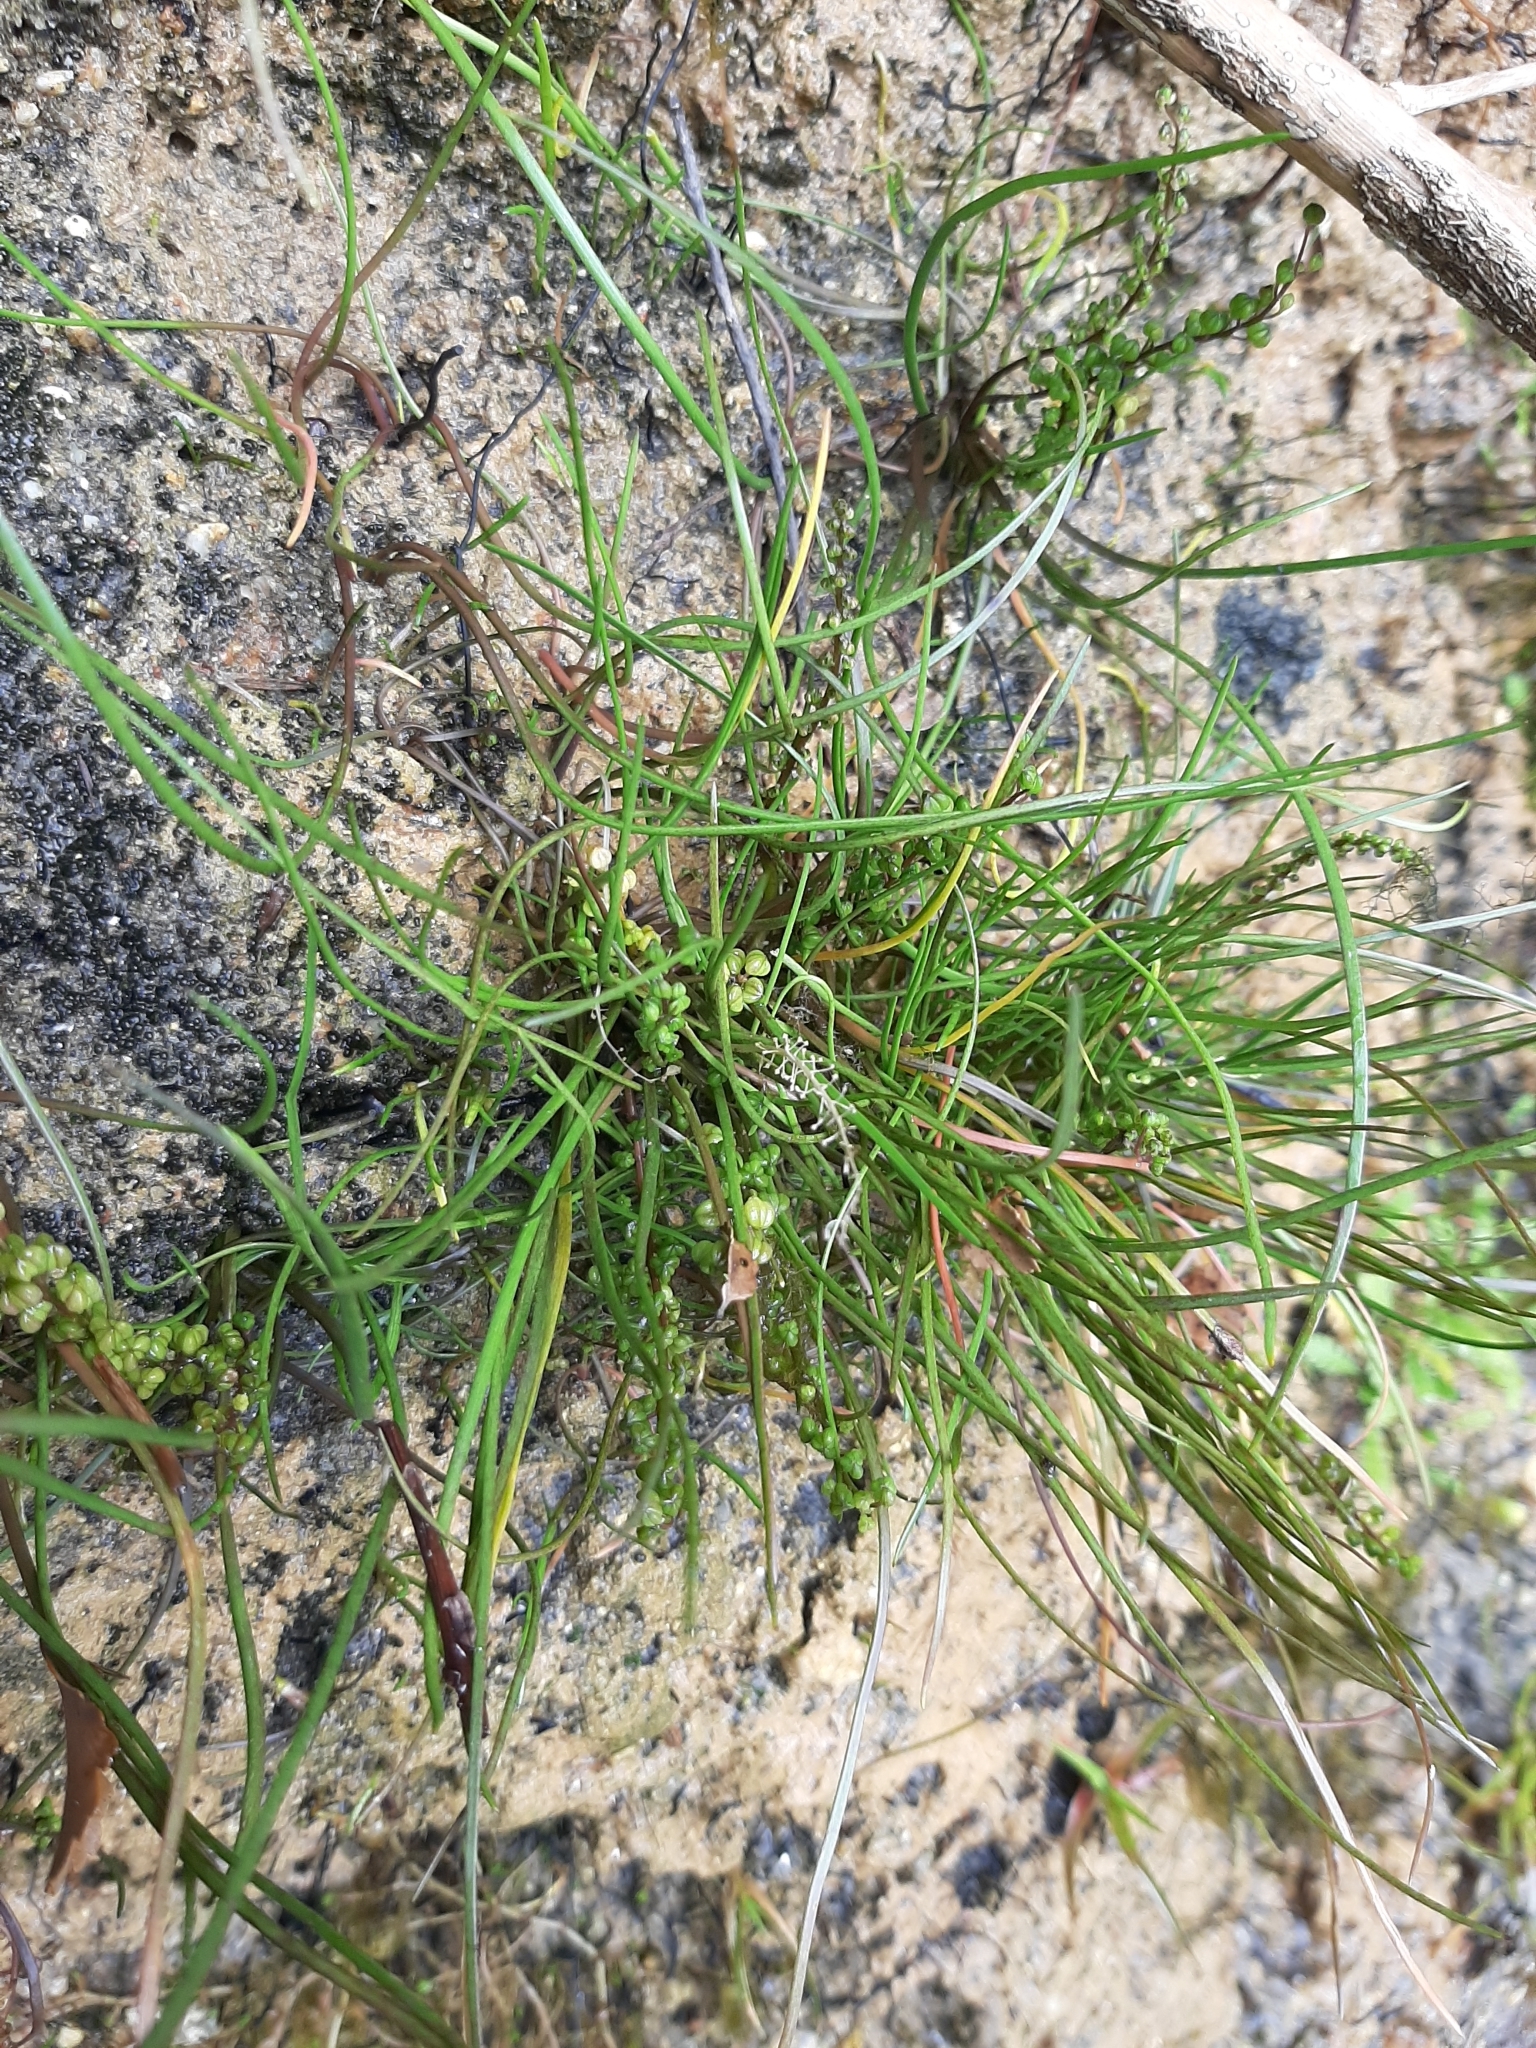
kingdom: Plantae
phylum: Tracheophyta
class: Liliopsida
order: Alismatales
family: Juncaginaceae
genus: Triglochin
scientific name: Triglochin striata
